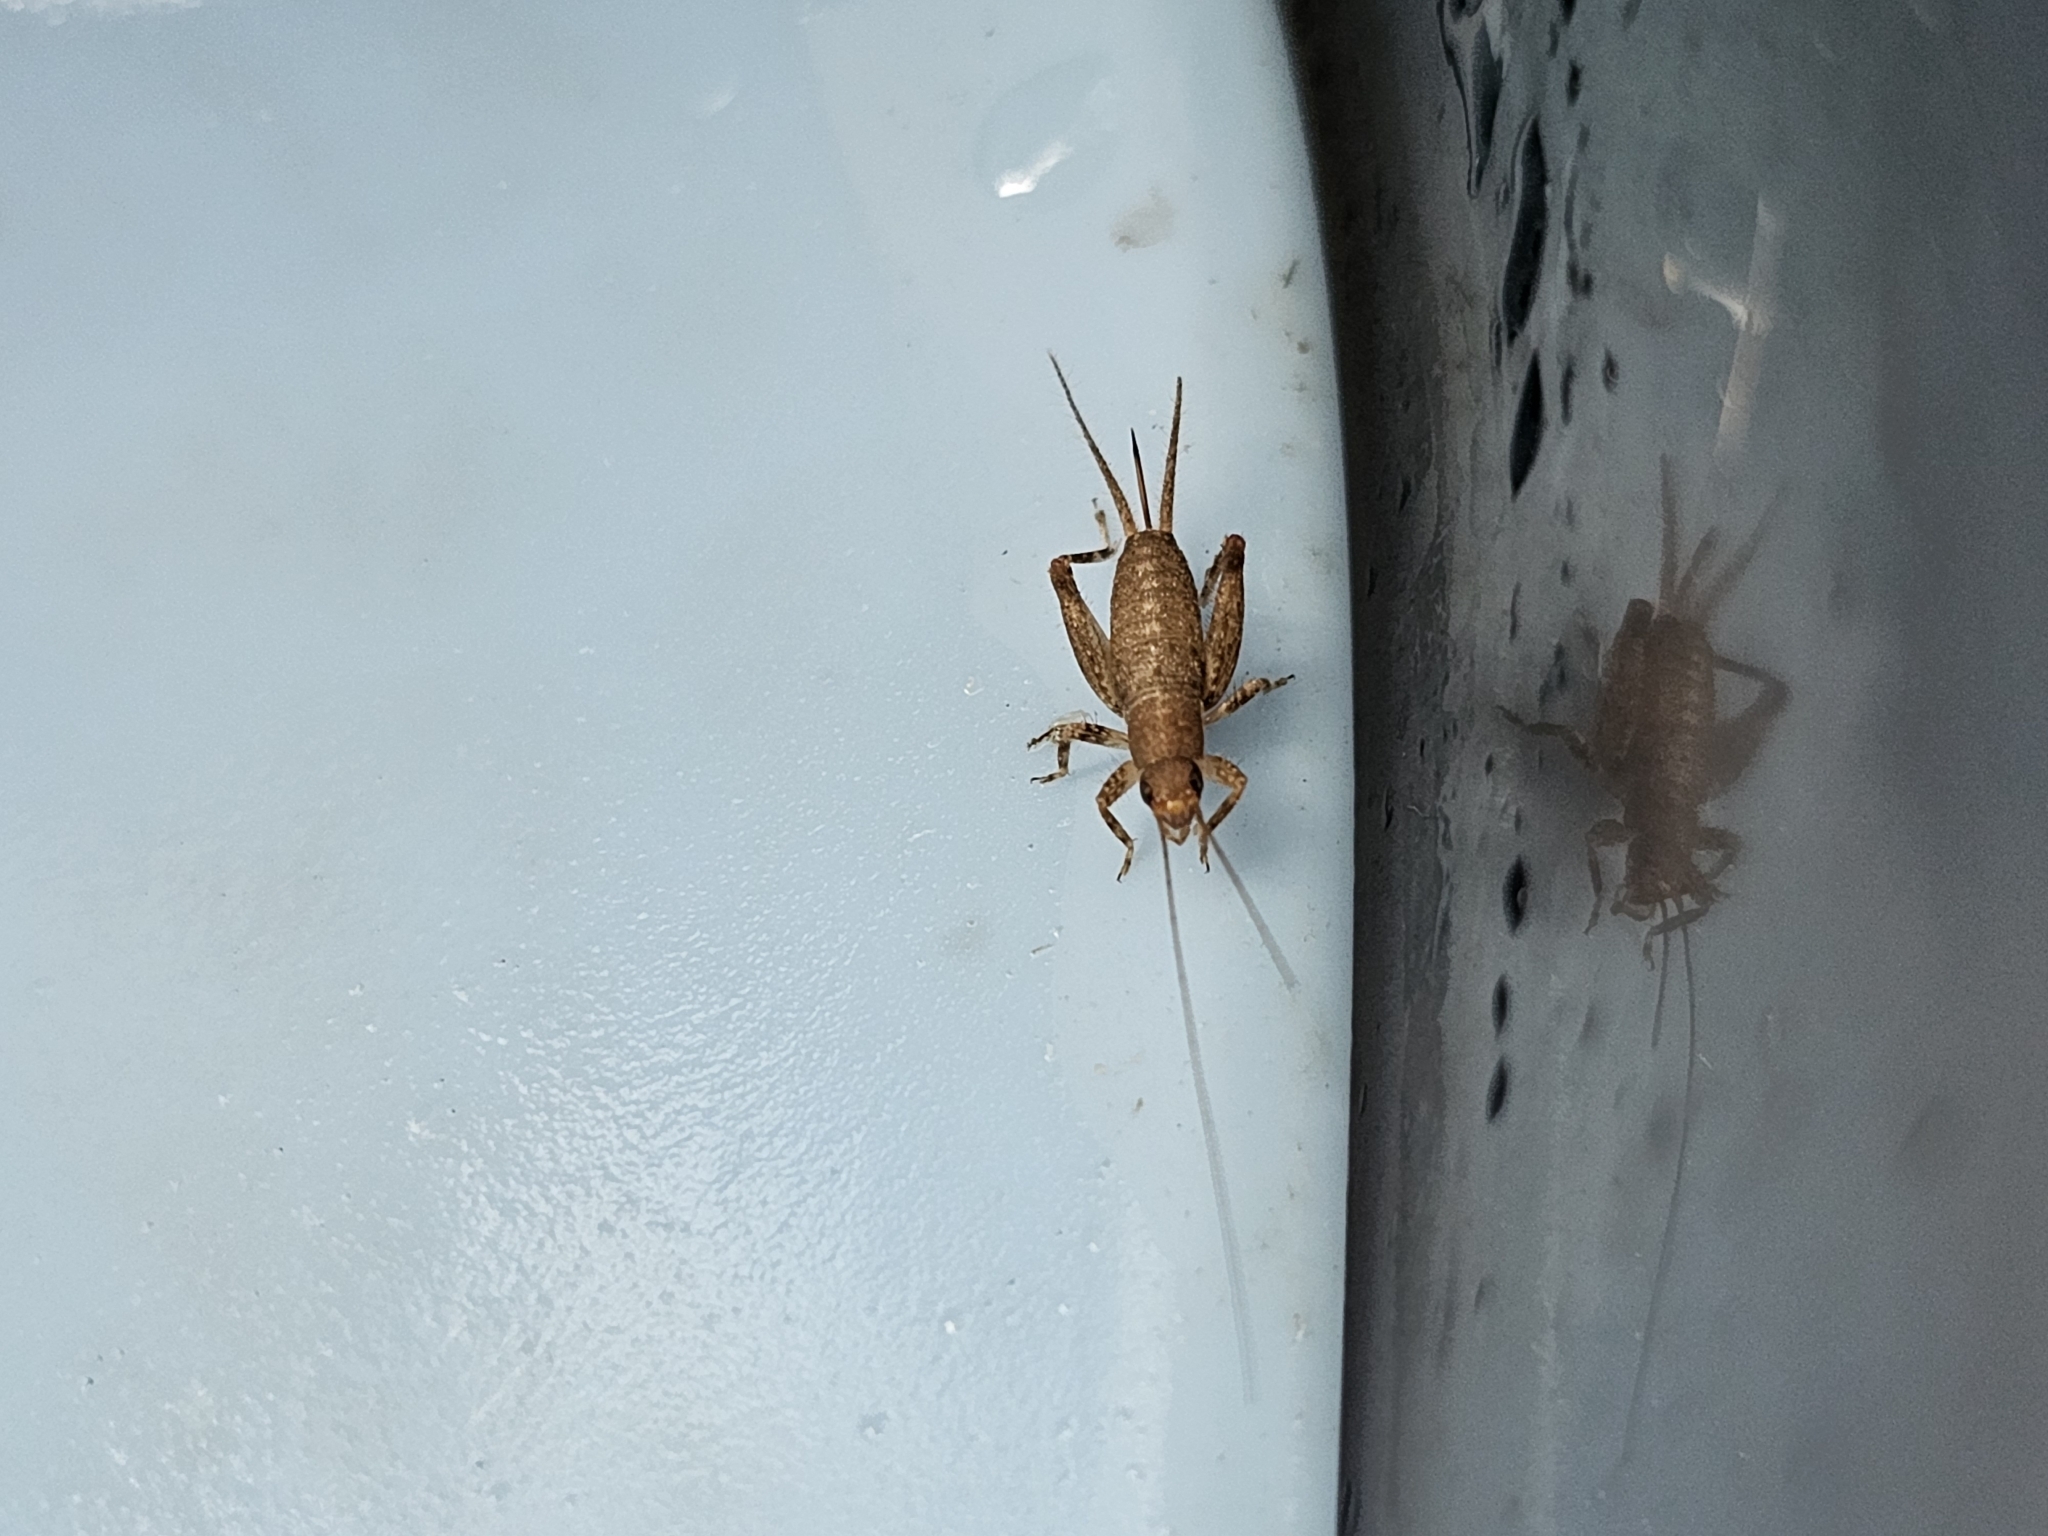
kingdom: Animalia
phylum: Arthropoda
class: Insecta
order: Orthoptera
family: Mogoplistidae
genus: Ornebius
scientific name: Ornebius aperta
